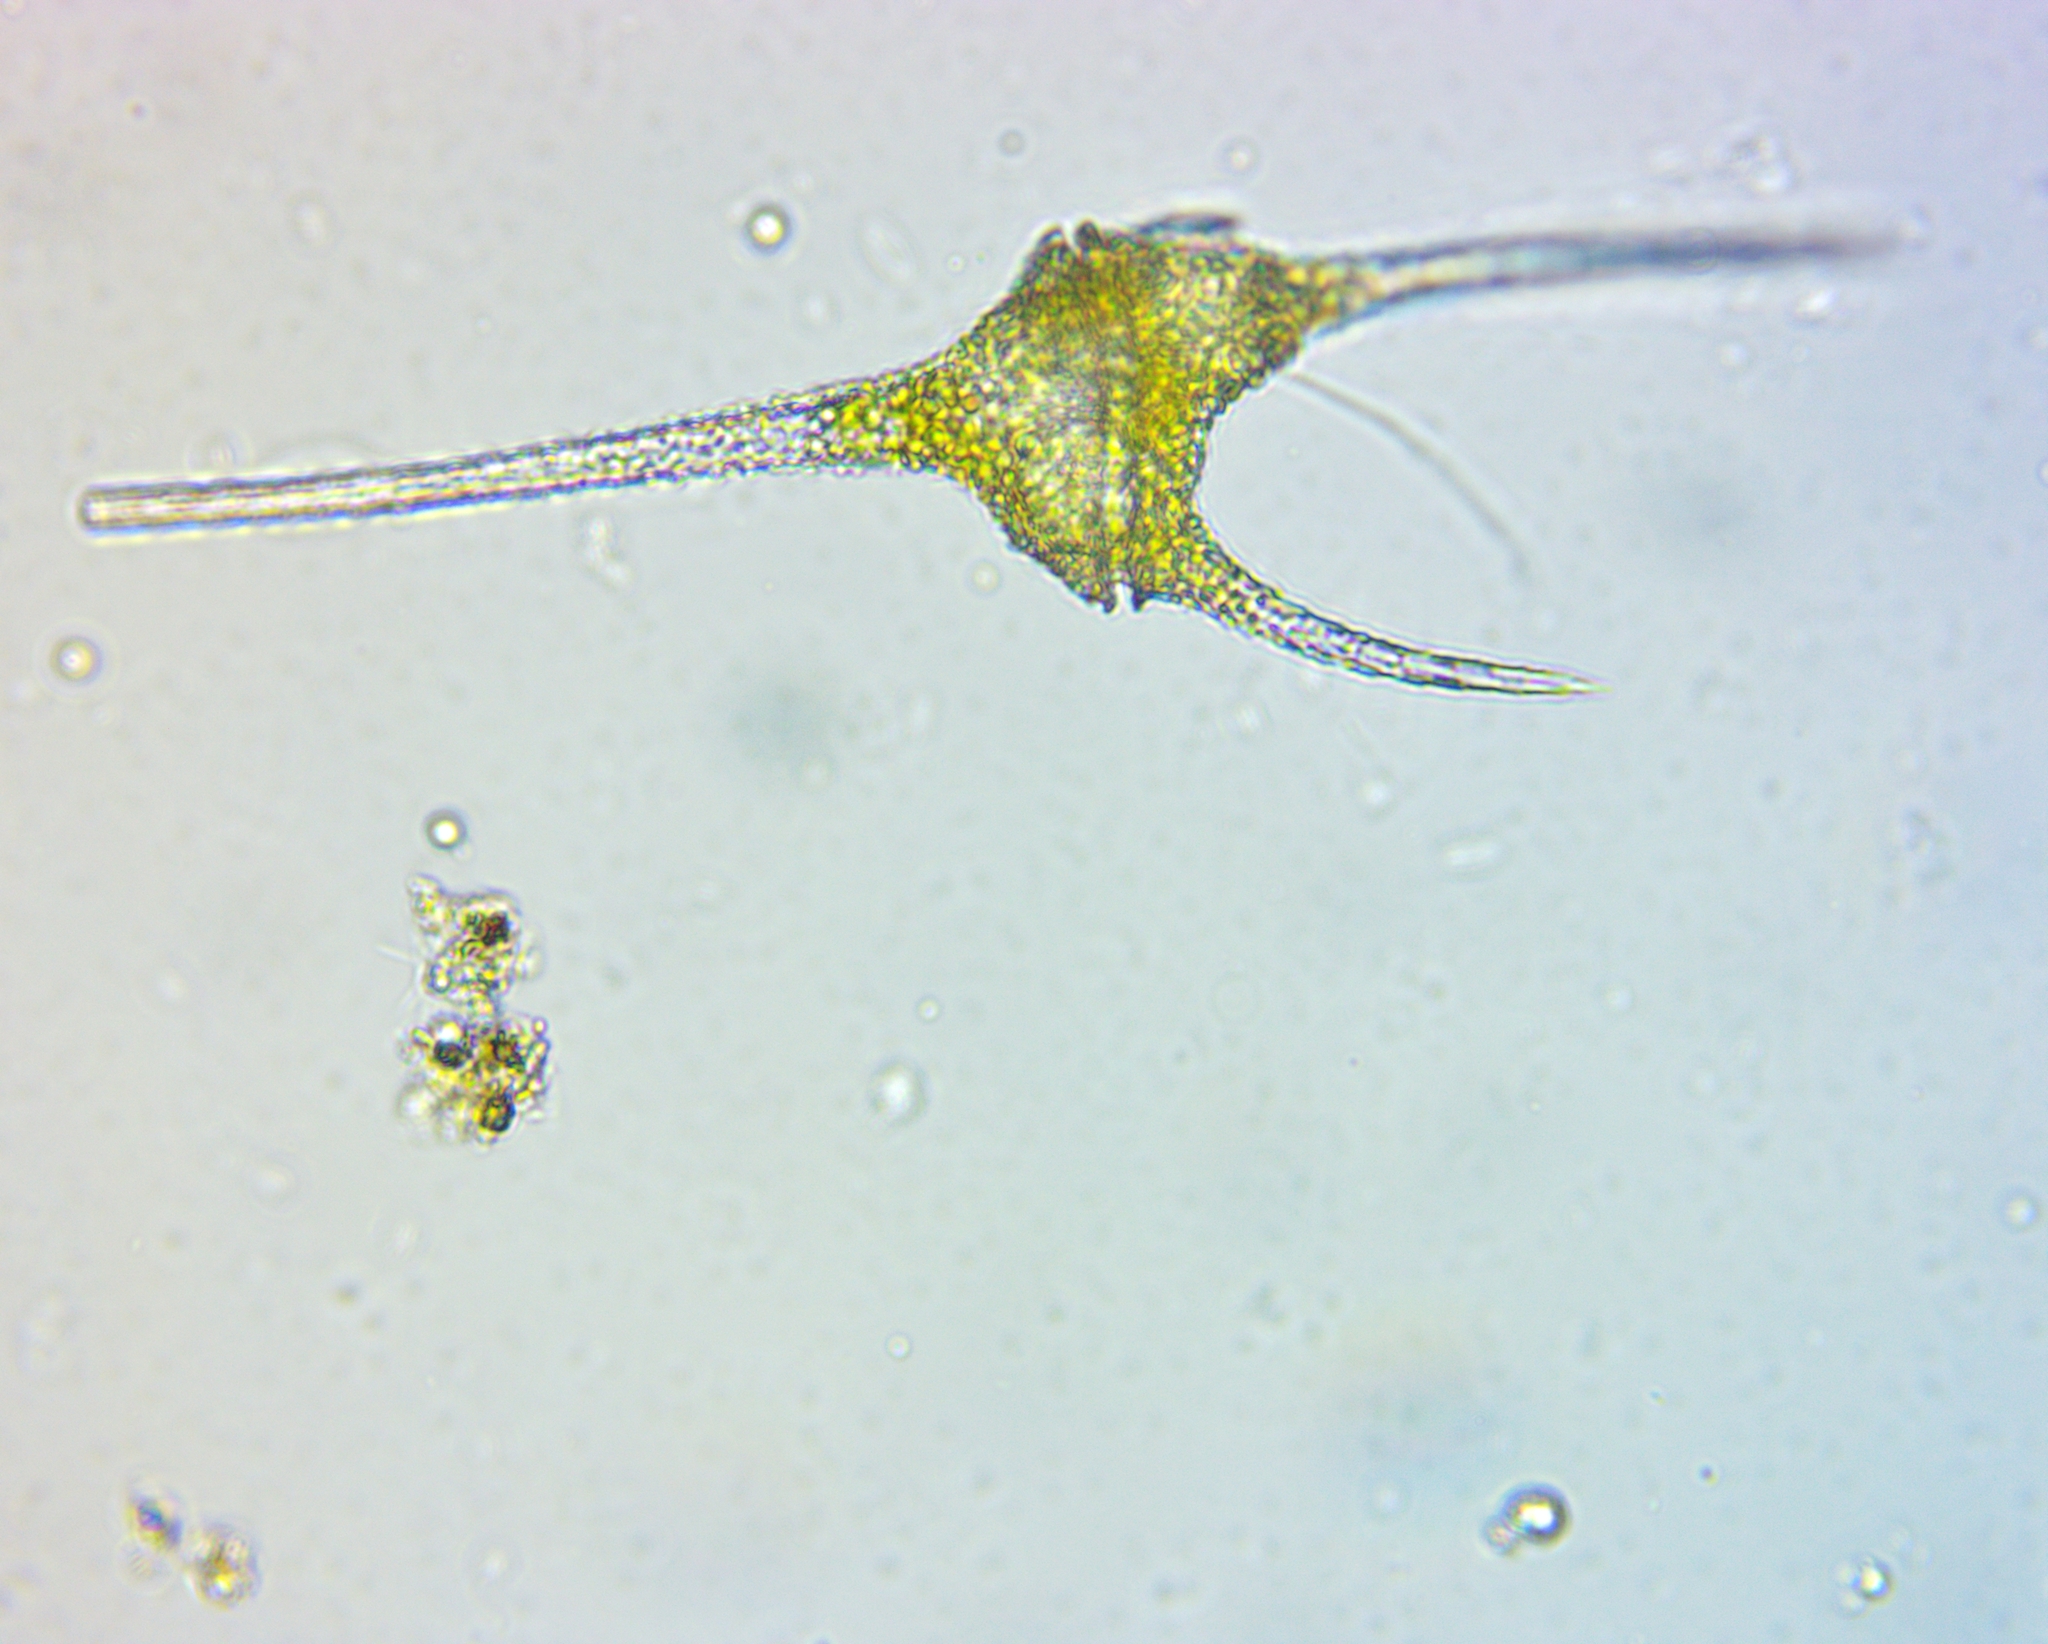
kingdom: Chromista
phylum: Myzozoa
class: Dinophyceae
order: Gonyaulacales
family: Ceratiaceae
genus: Ceratium
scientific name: Ceratium hirundinella
